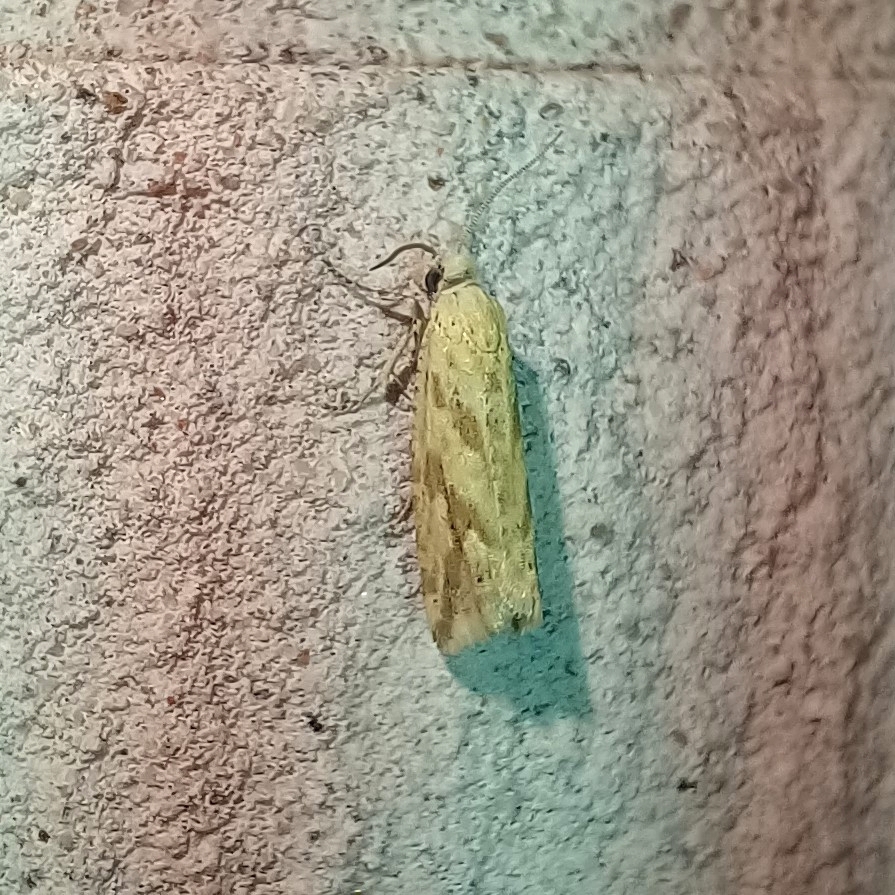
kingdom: Animalia
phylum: Arthropoda
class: Insecta
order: Lepidoptera
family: Tortricidae
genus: Thiodia
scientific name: Thiodia citrana
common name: Lemon bell
